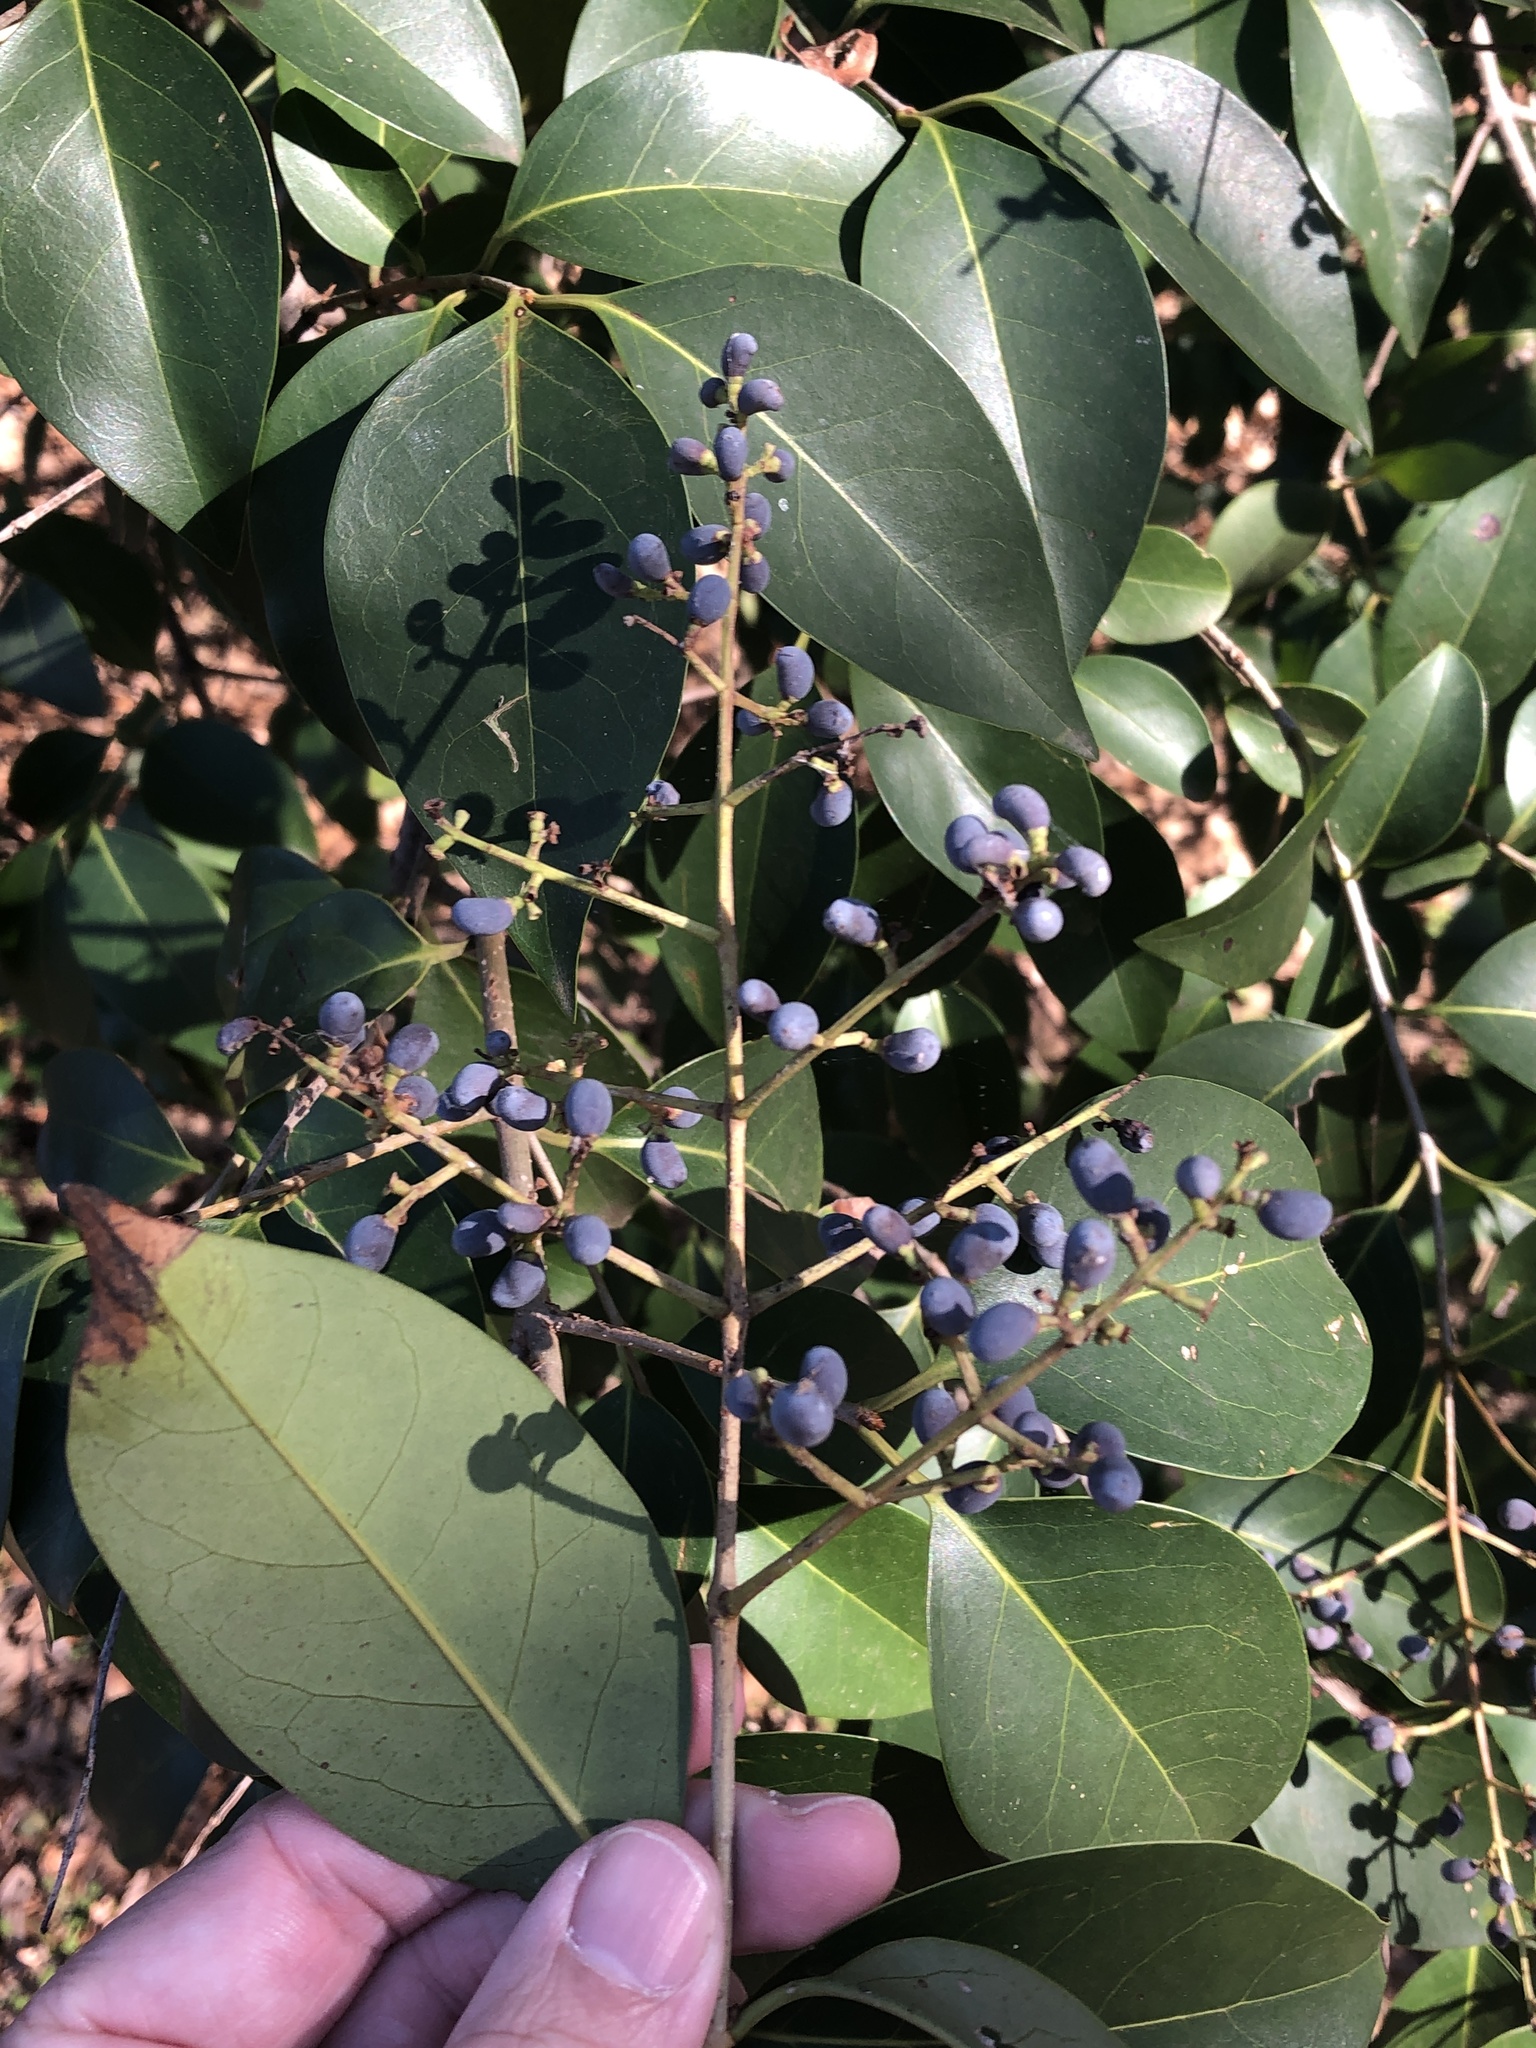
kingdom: Plantae
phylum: Tracheophyta
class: Magnoliopsida
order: Lamiales
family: Oleaceae
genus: Ligustrum
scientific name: Ligustrum lucidum
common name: Glossy privet
